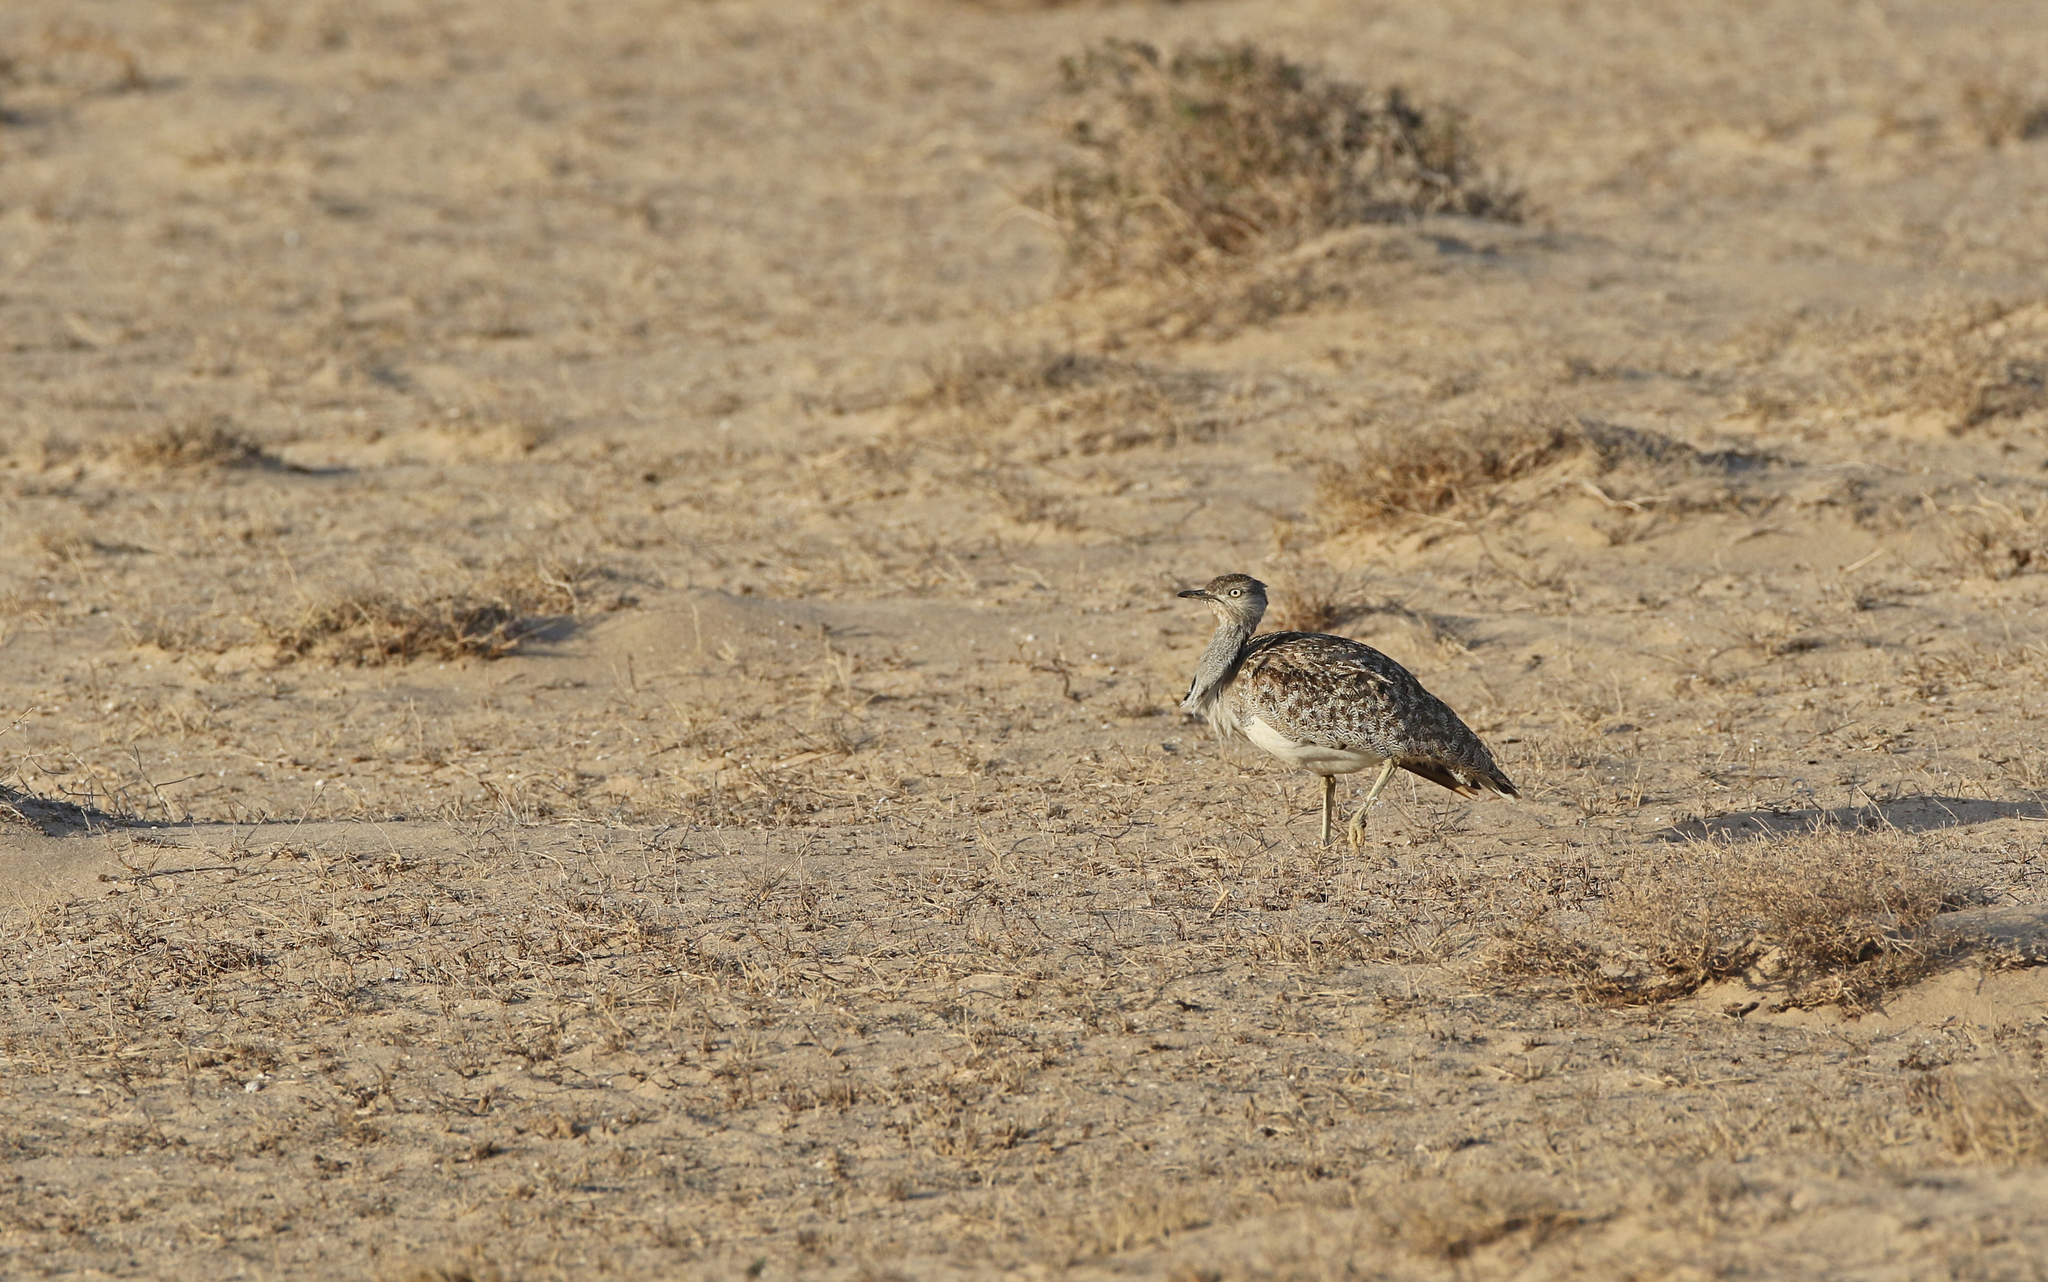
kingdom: Animalia
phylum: Chordata
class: Aves
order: Otidiformes
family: Otididae
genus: Chlamydotis
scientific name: Chlamydotis undulata
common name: Houbara bustard
